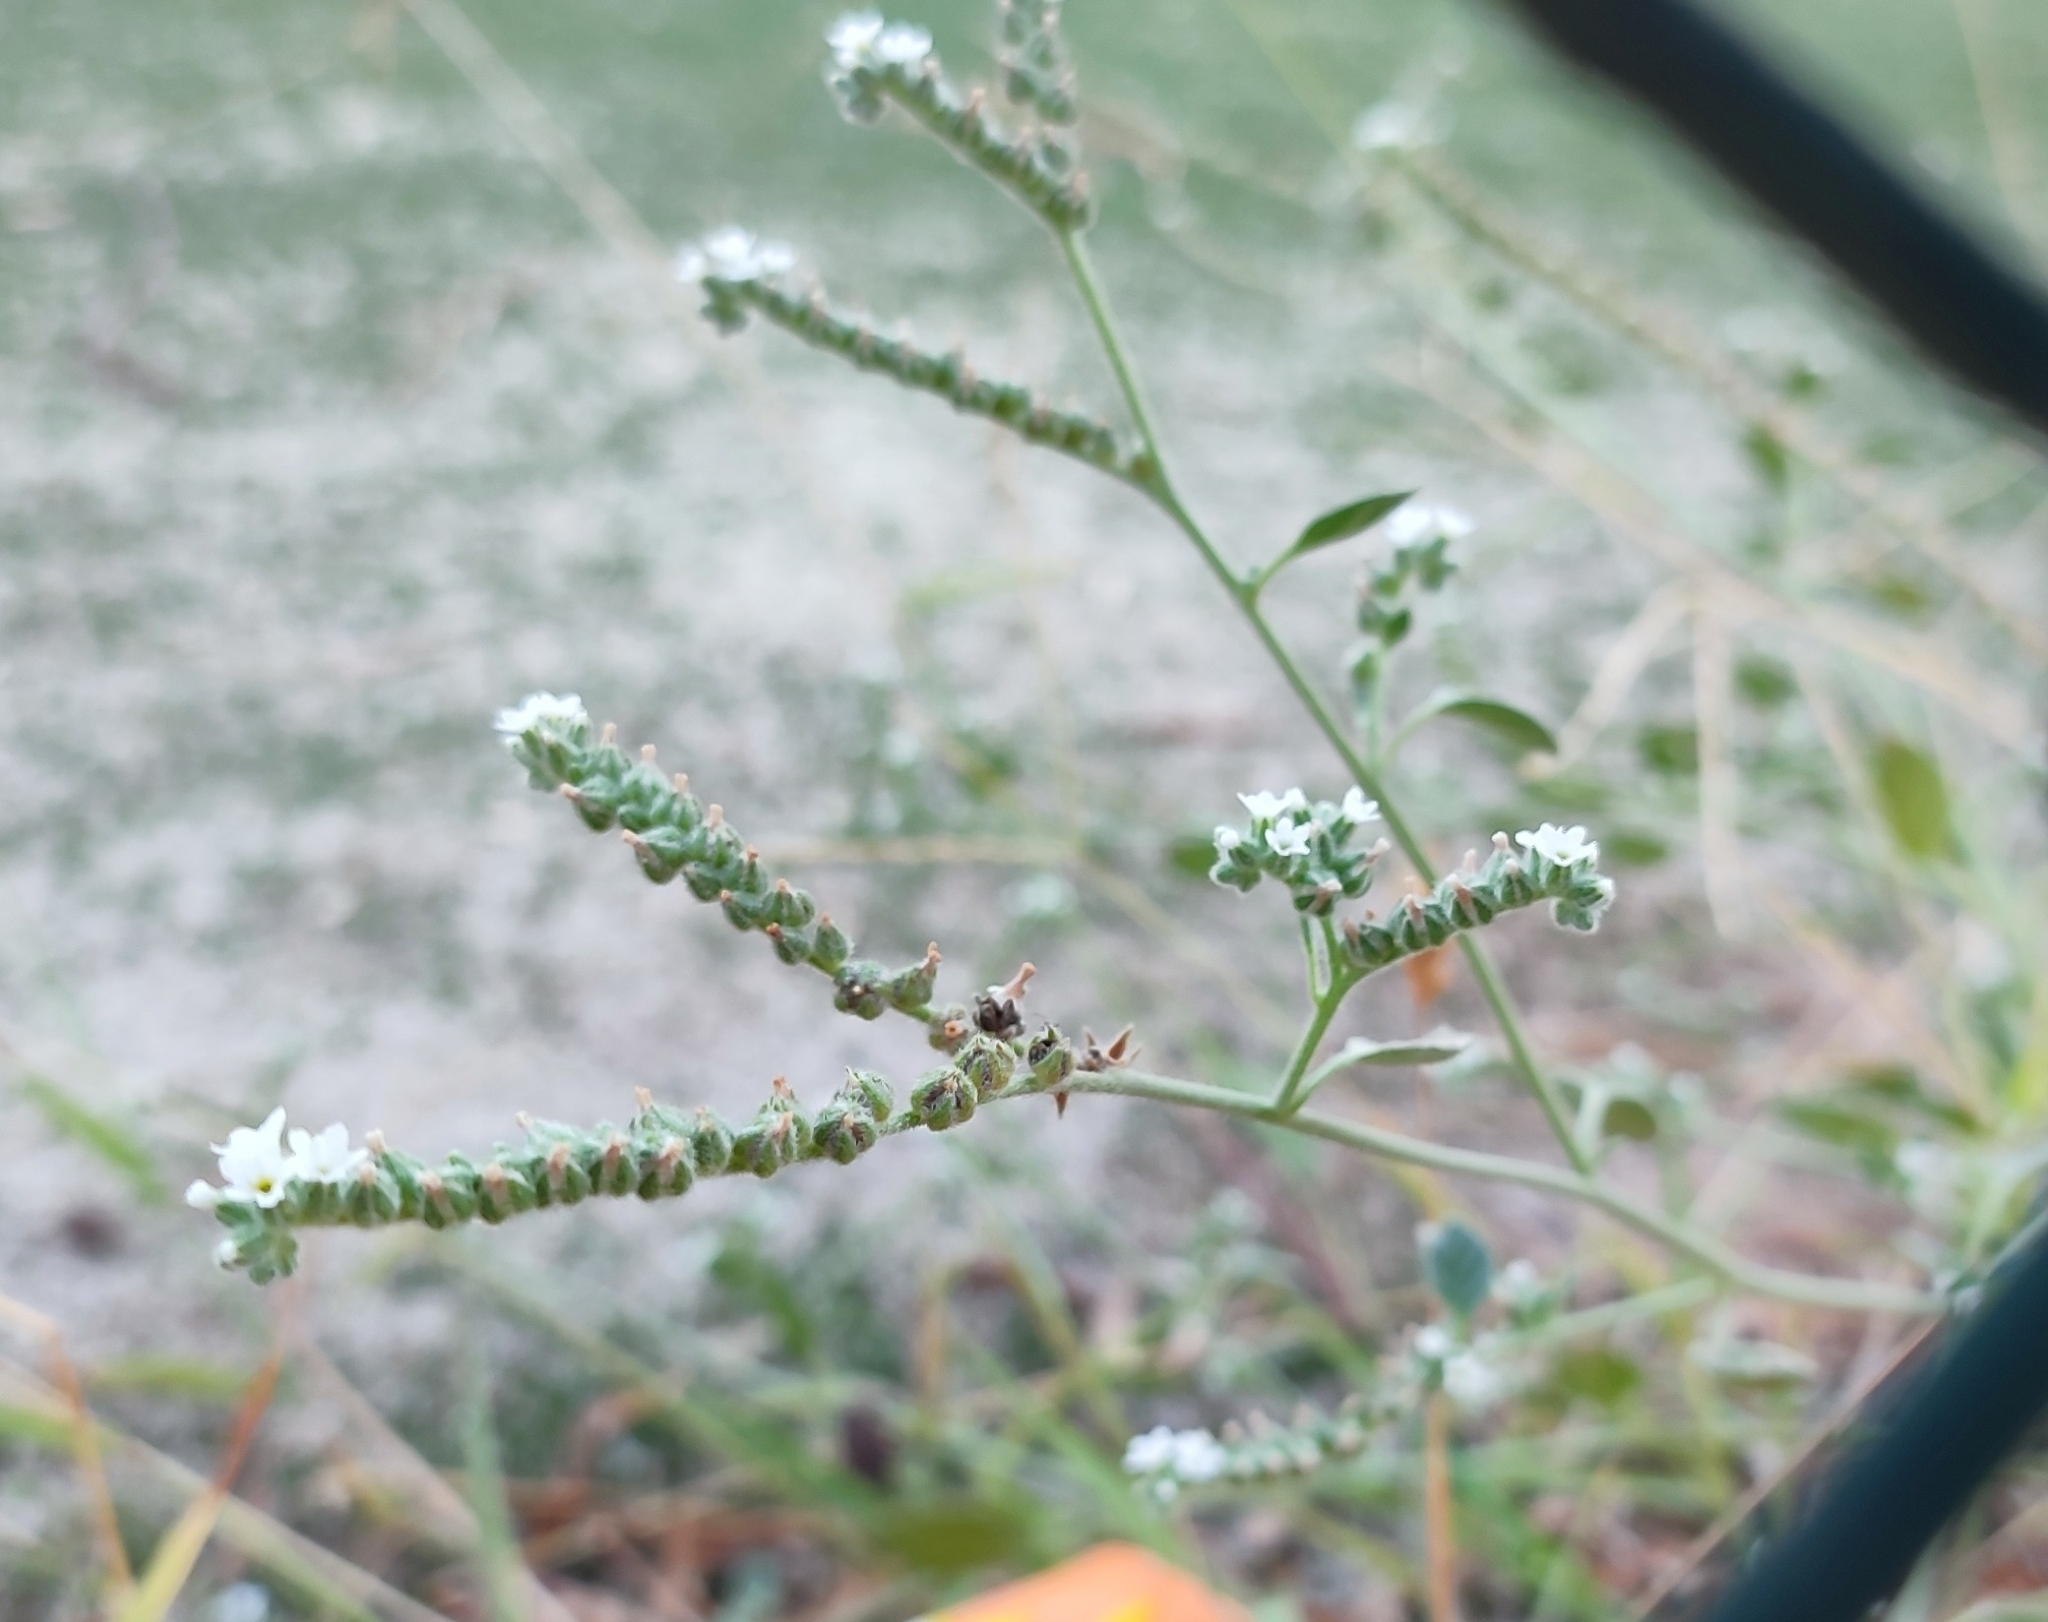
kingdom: Plantae
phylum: Tracheophyta
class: Magnoliopsida
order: Boraginales
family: Heliotropiaceae
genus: Heliotropium
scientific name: Heliotropium europaeum
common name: European heliotrope
